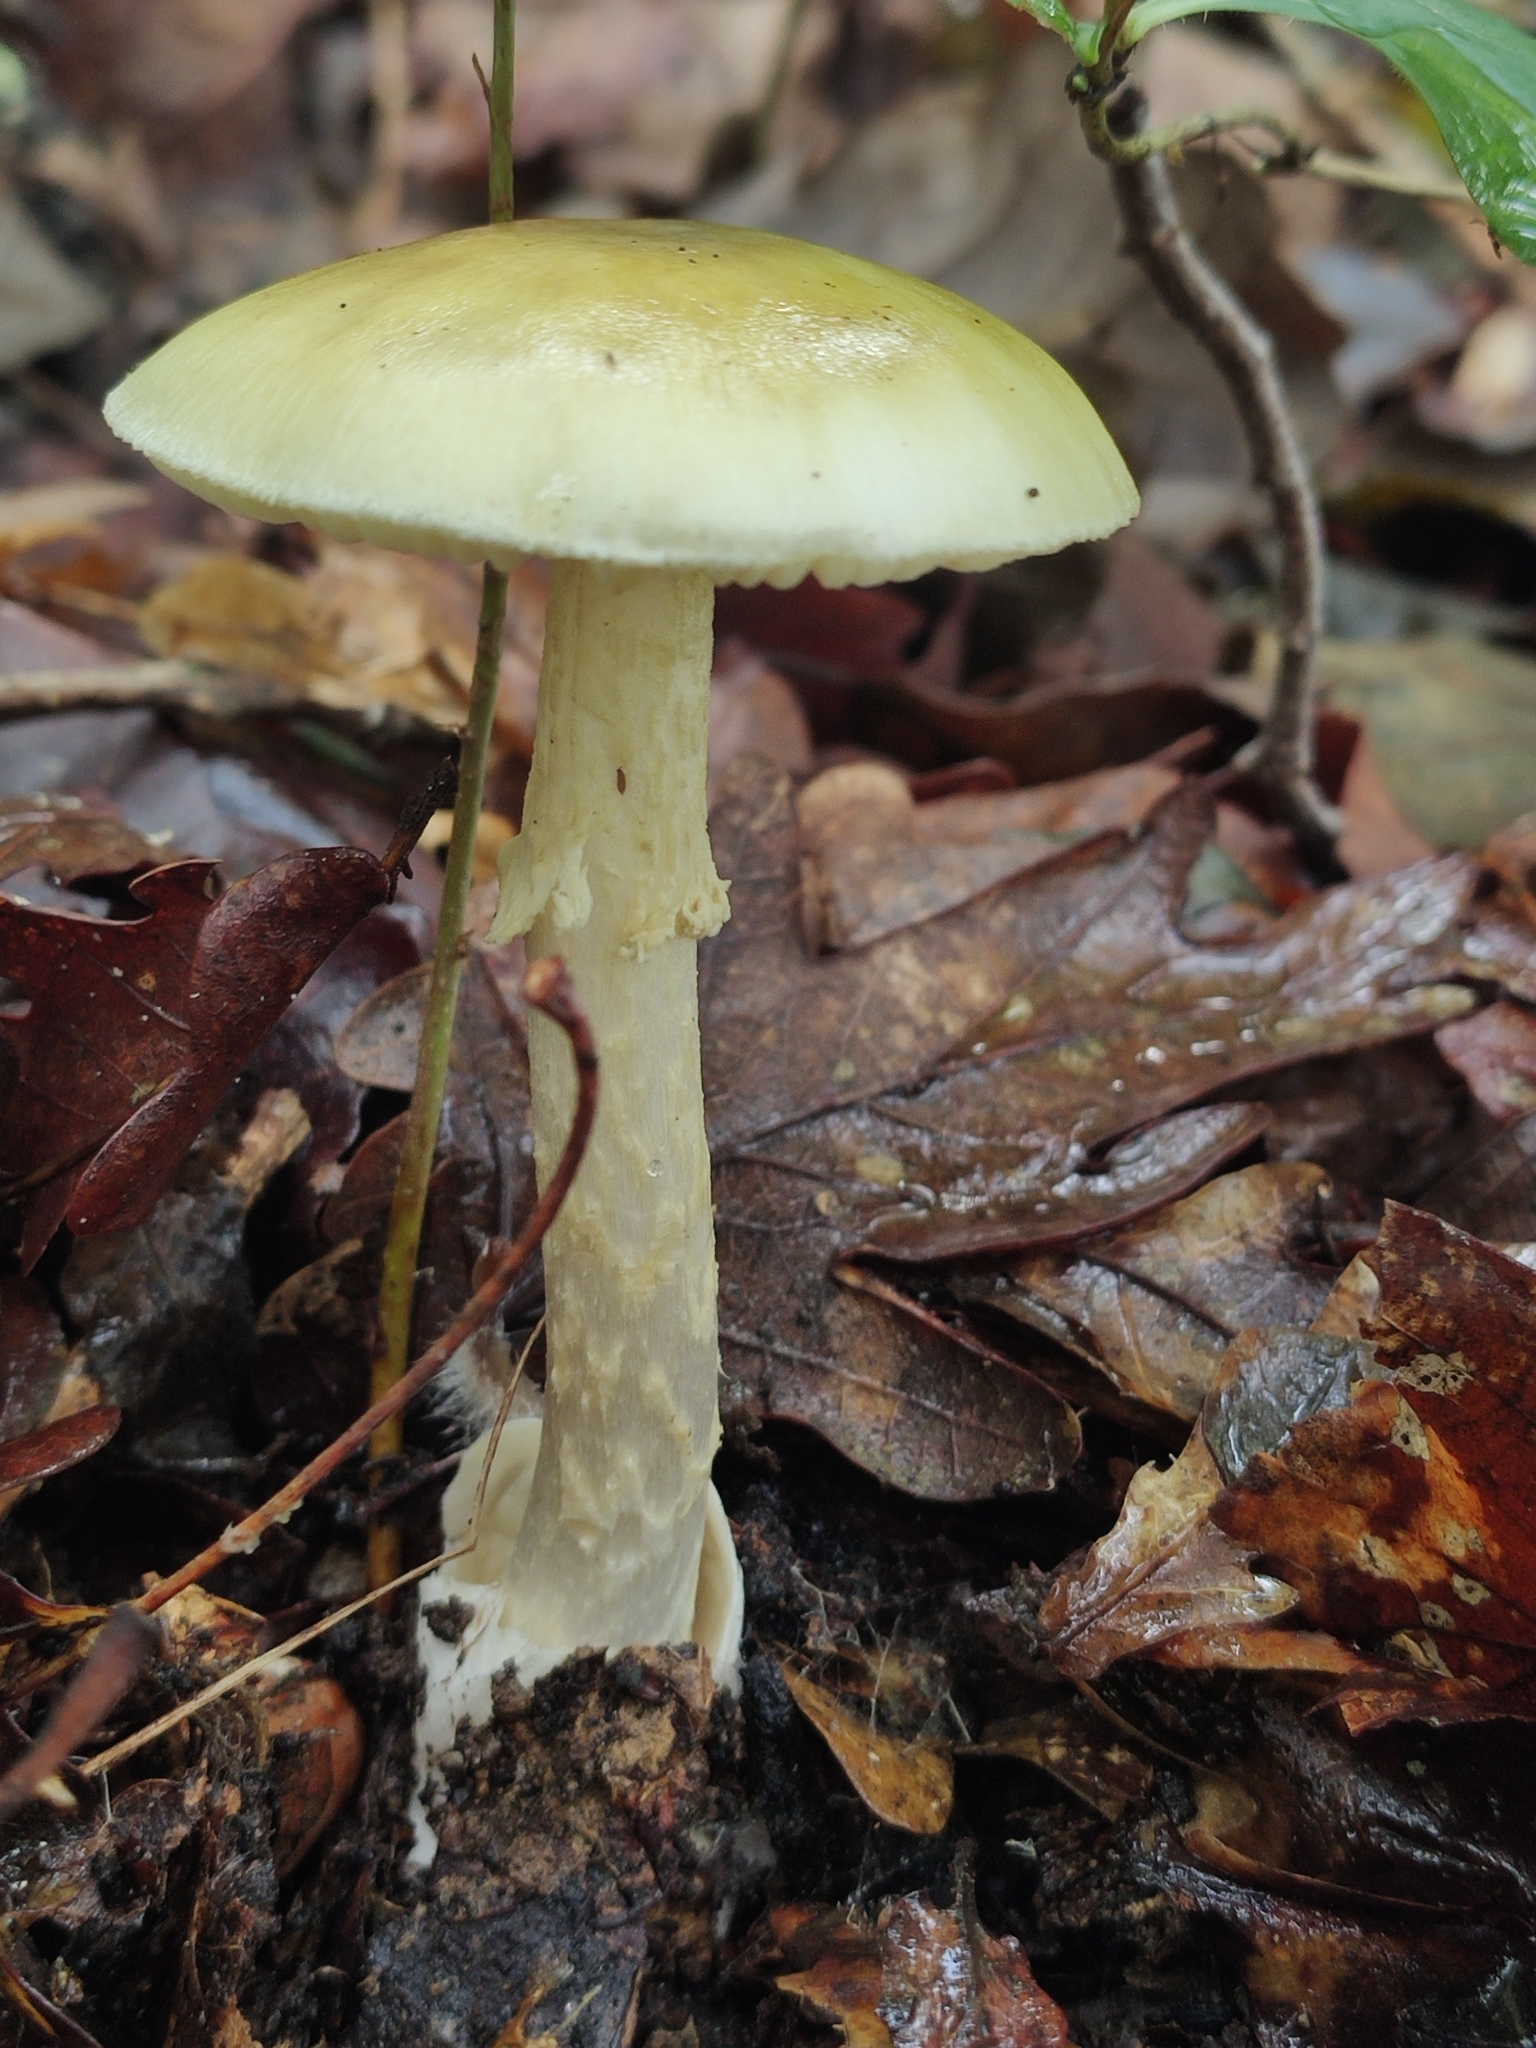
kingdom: Fungi
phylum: Basidiomycota
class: Agaricomycetes
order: Agaricales
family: Amanitaceae
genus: Amanita
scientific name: Amanita phalloides
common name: Death cap
